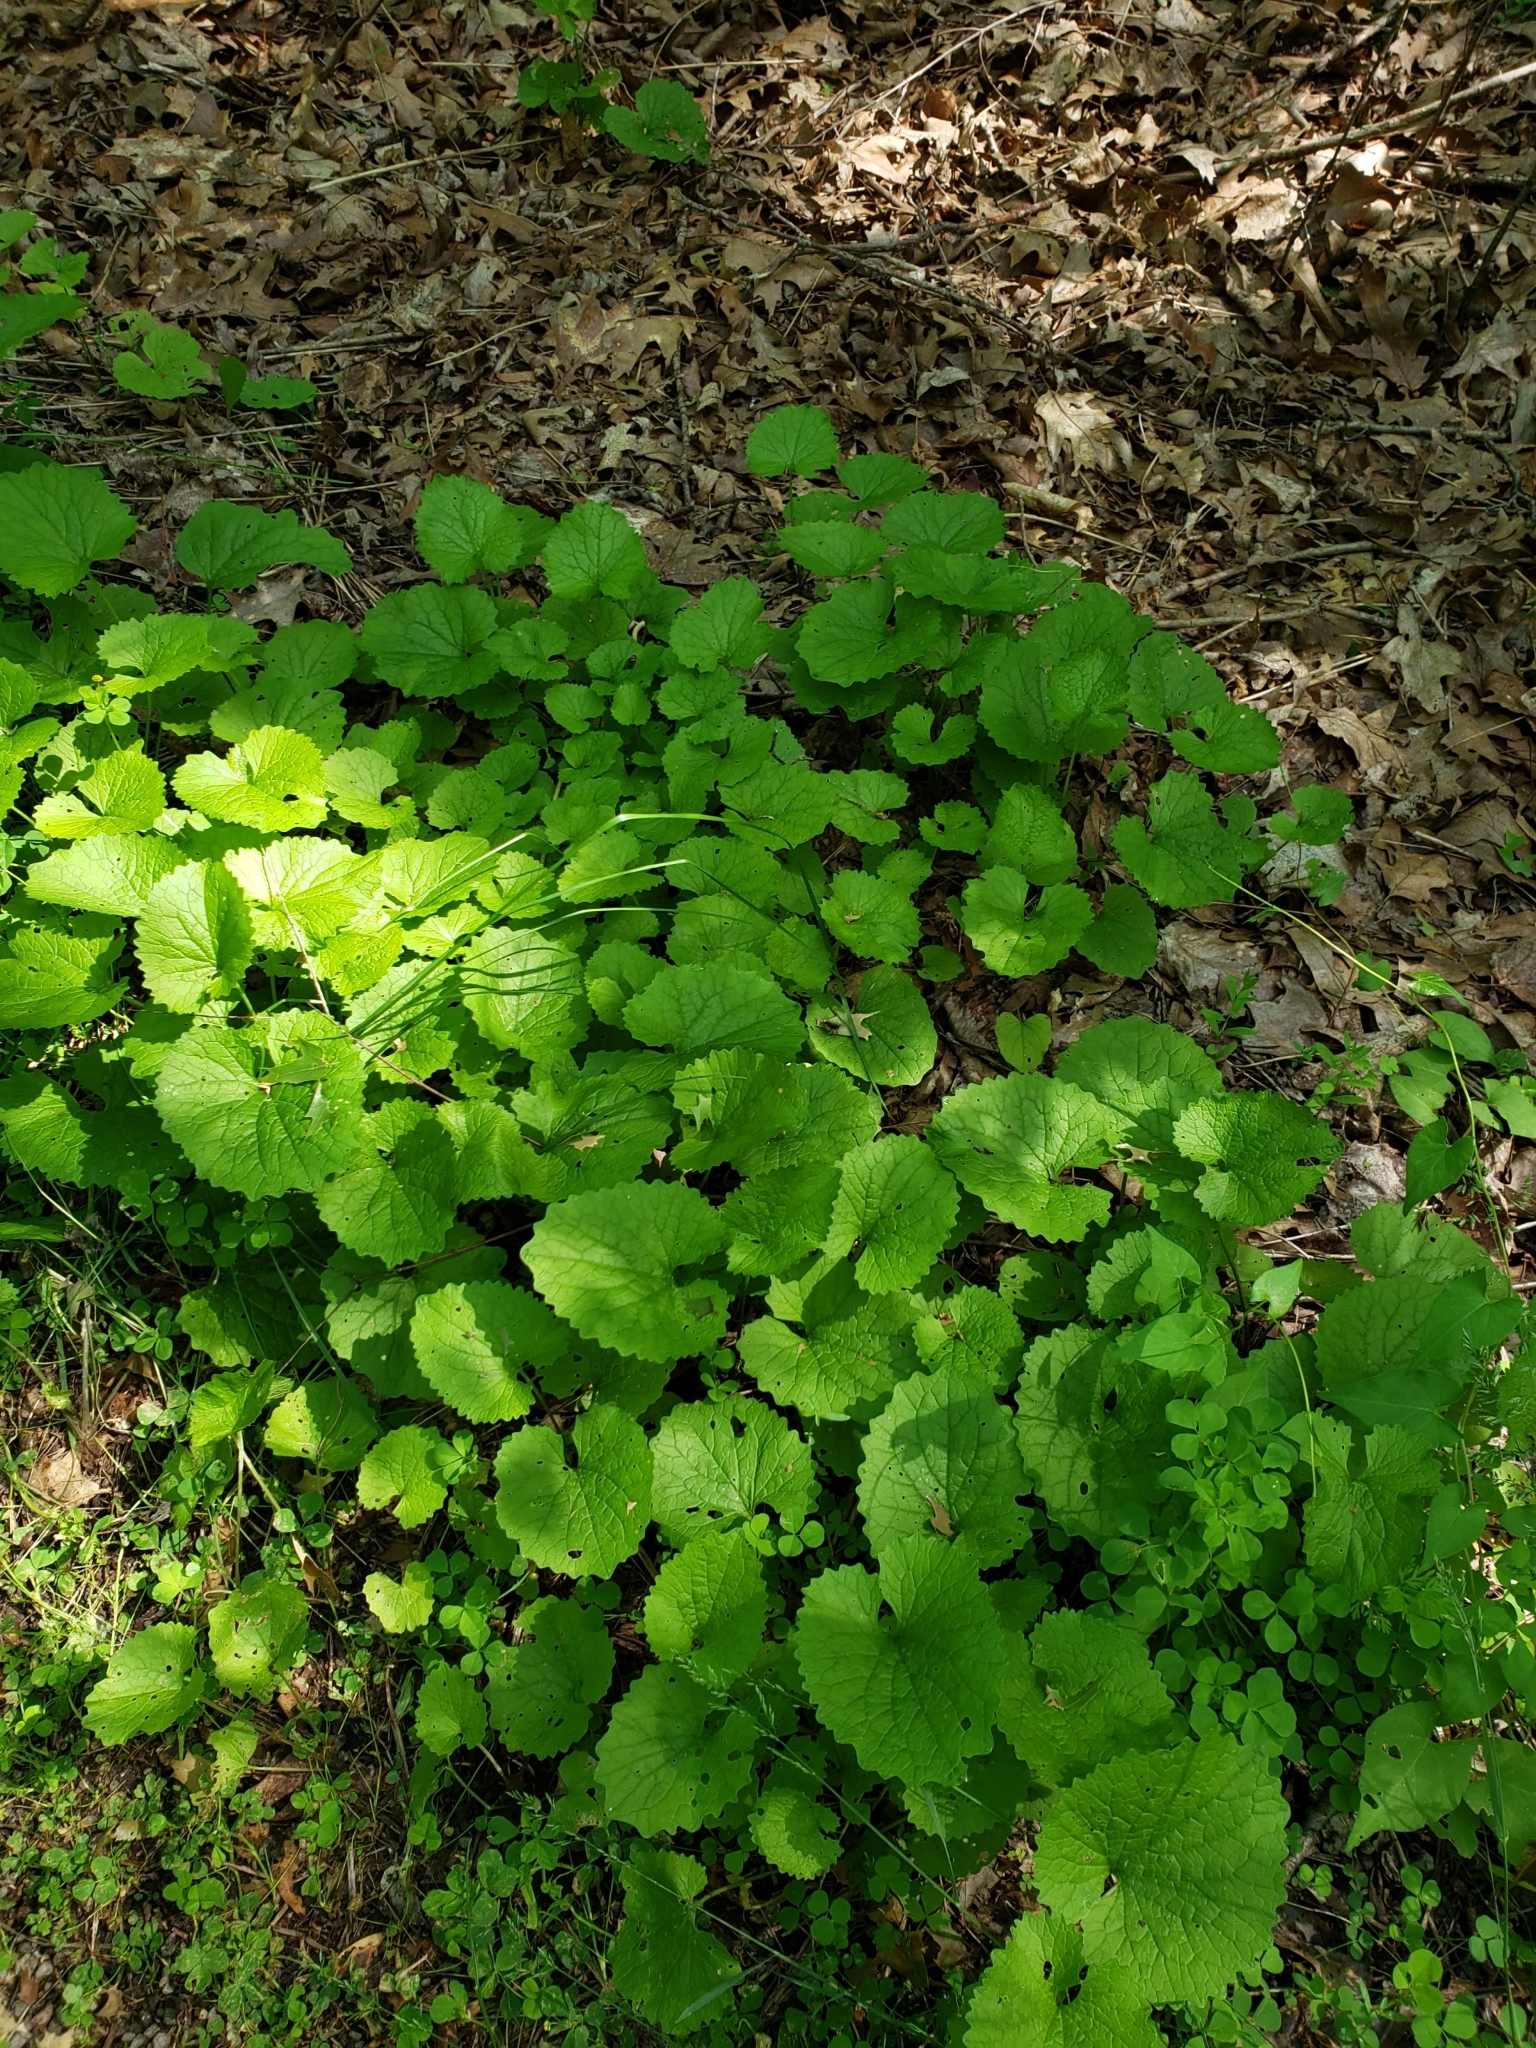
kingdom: Plantae
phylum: Tracheophyta
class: Magnoliopsida
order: Brassicales
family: Brassicaceae
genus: Alliaria
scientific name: Alliaria petiolata
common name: Garlic mustard
